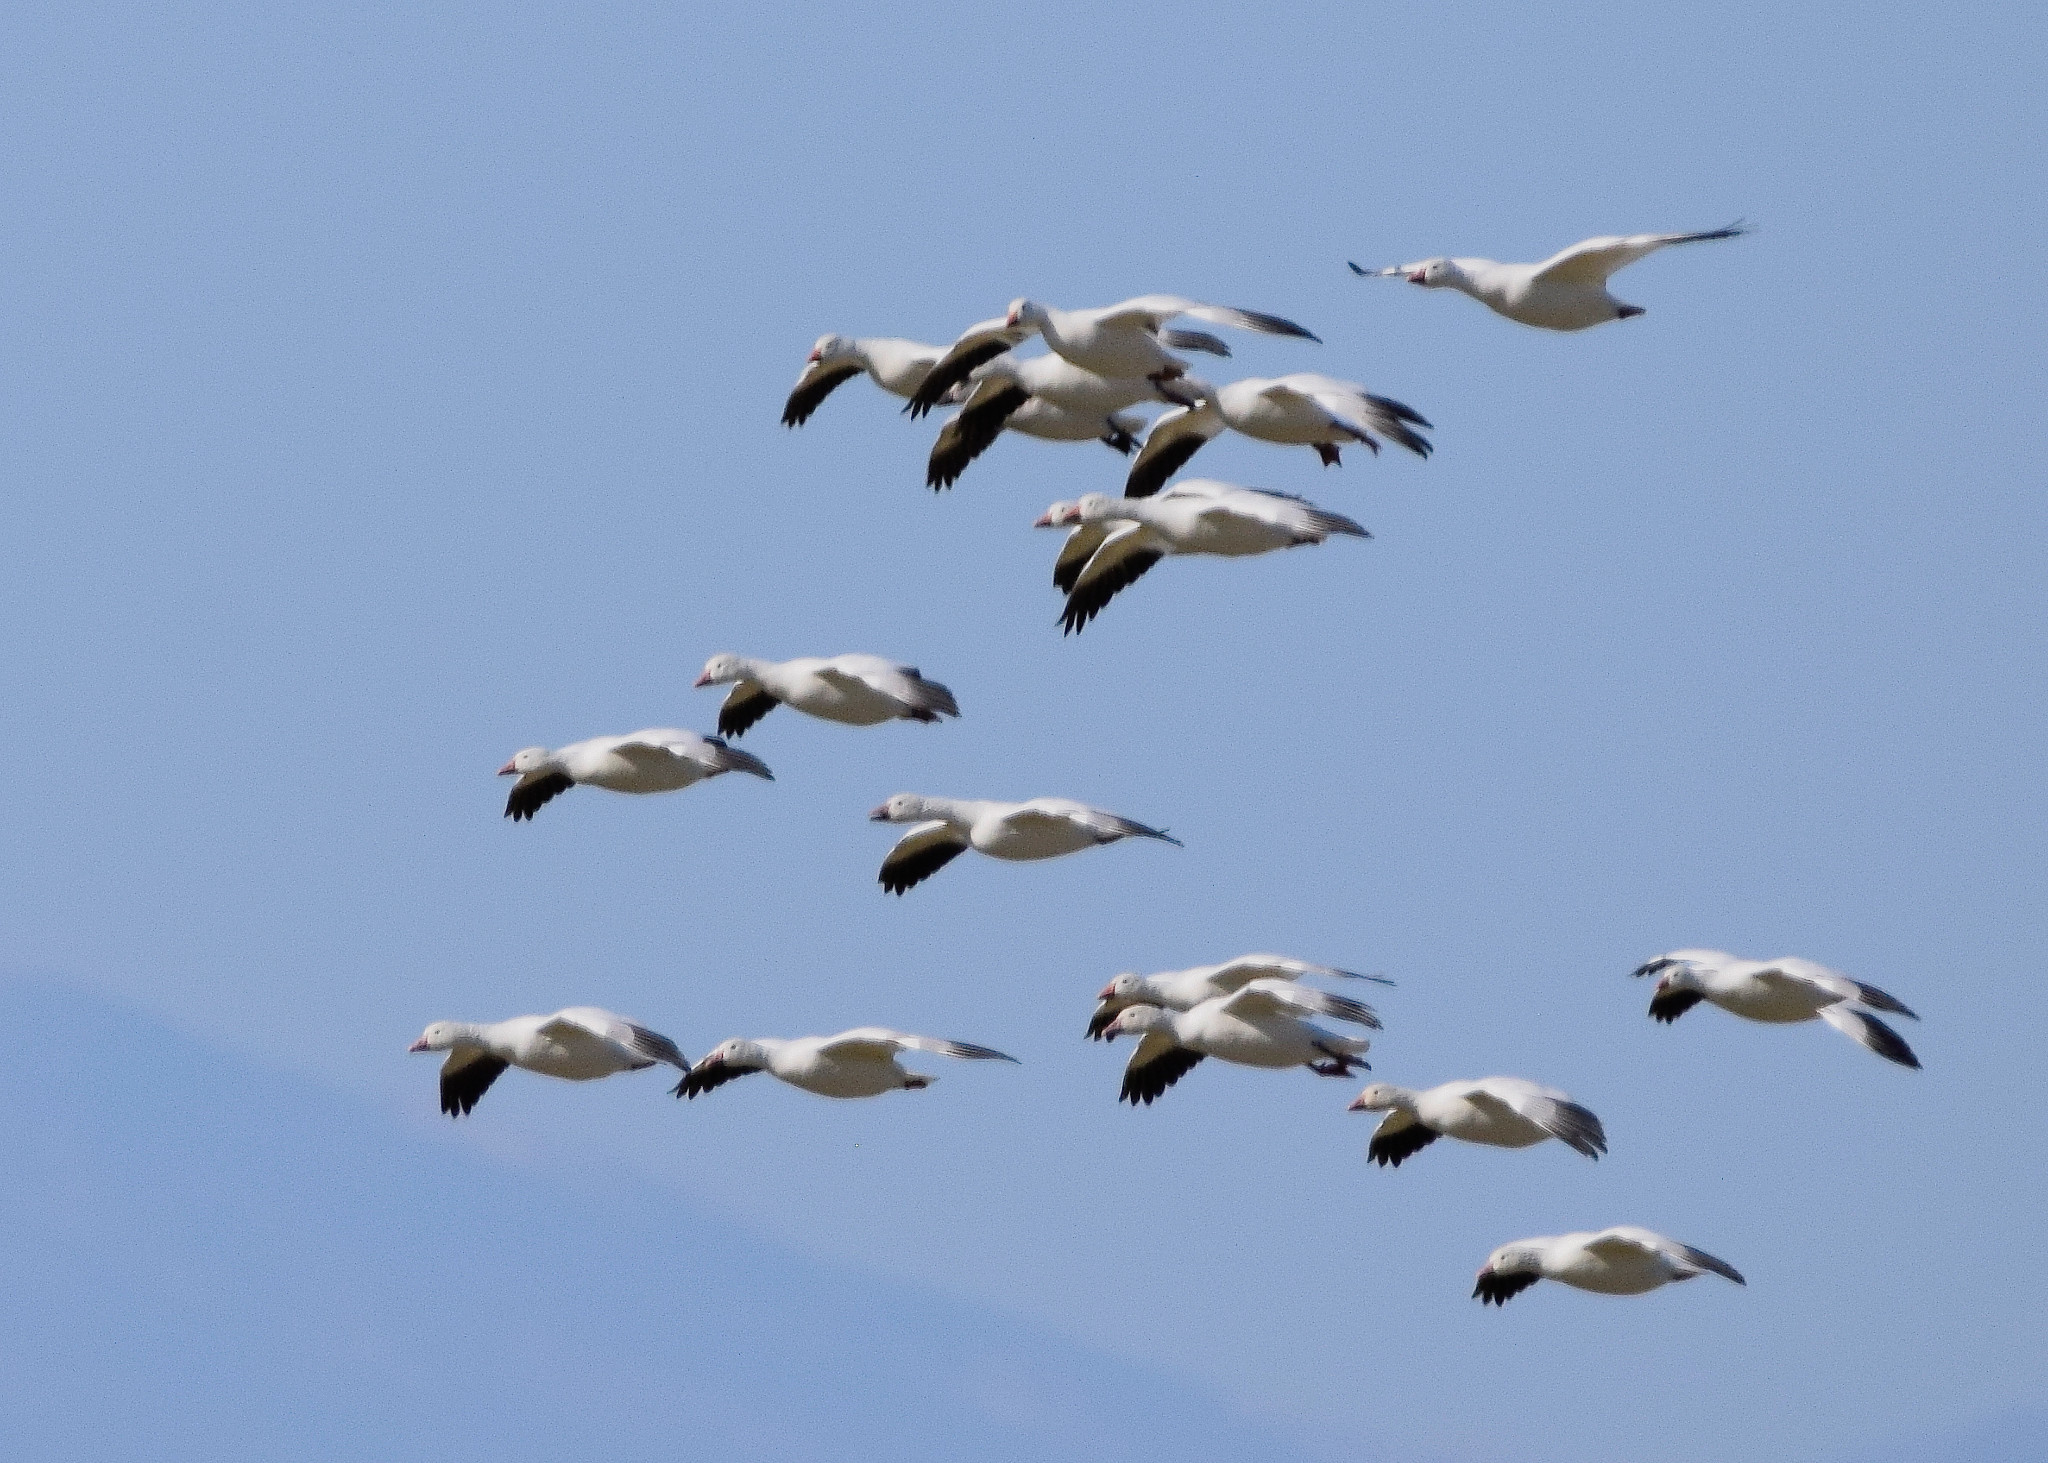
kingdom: Animalia
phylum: Chordata
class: Aves
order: Anseriformes
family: Anatidae
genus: Anser
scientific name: Anser caerulescens
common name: Snow goose
